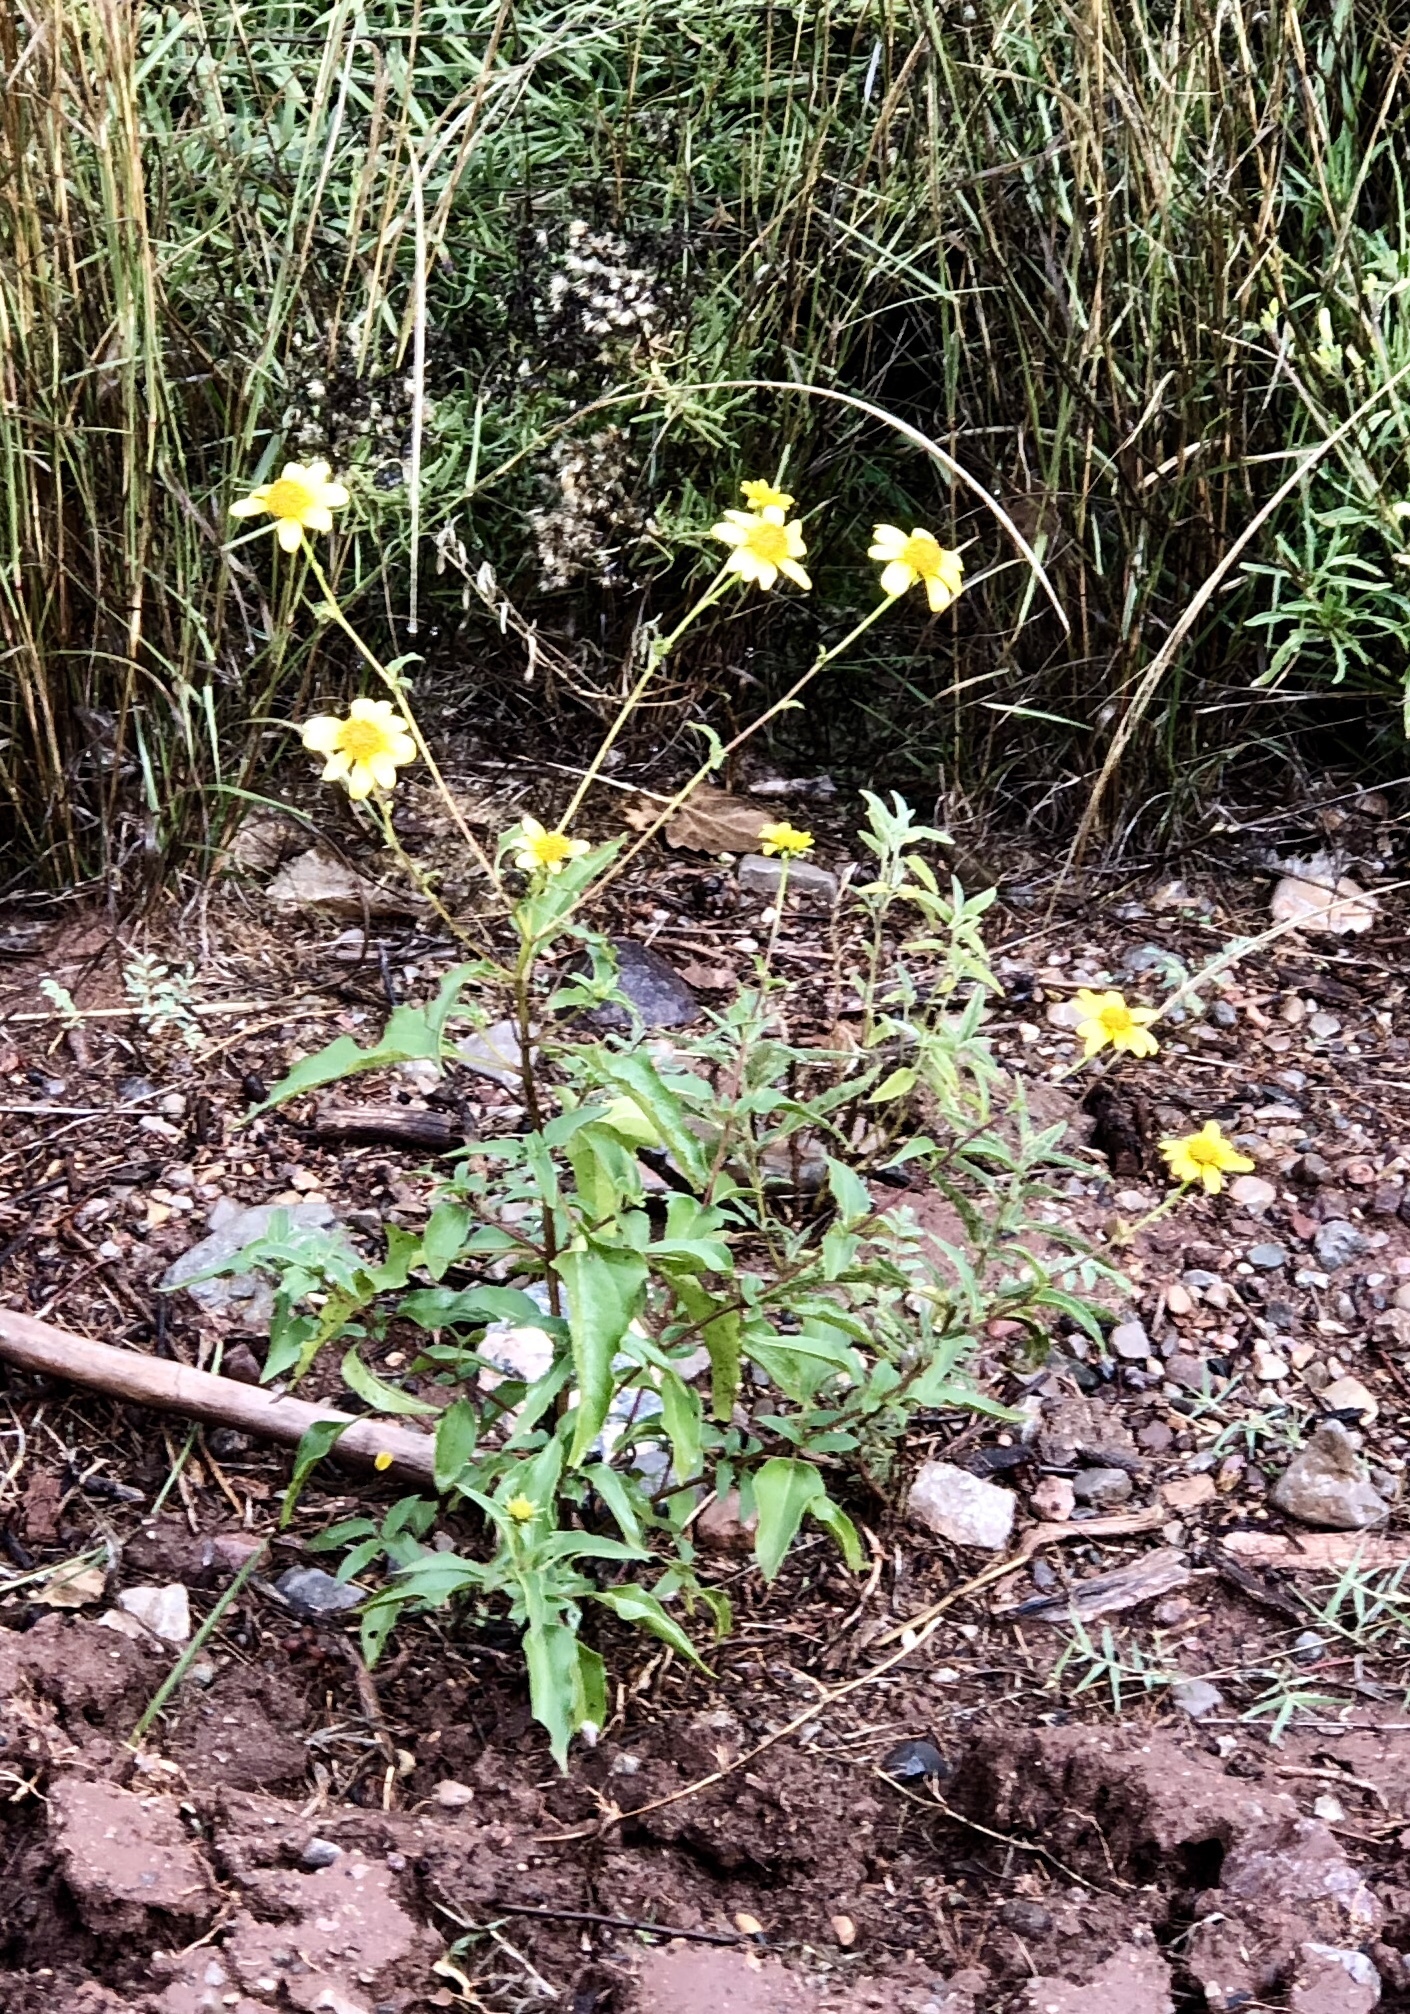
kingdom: Plantae
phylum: Tracheophyta
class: Magnoliopsida
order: Asterales
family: Asteraceae
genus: Viguiera
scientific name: Viguiera dentata
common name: Toothleaf
